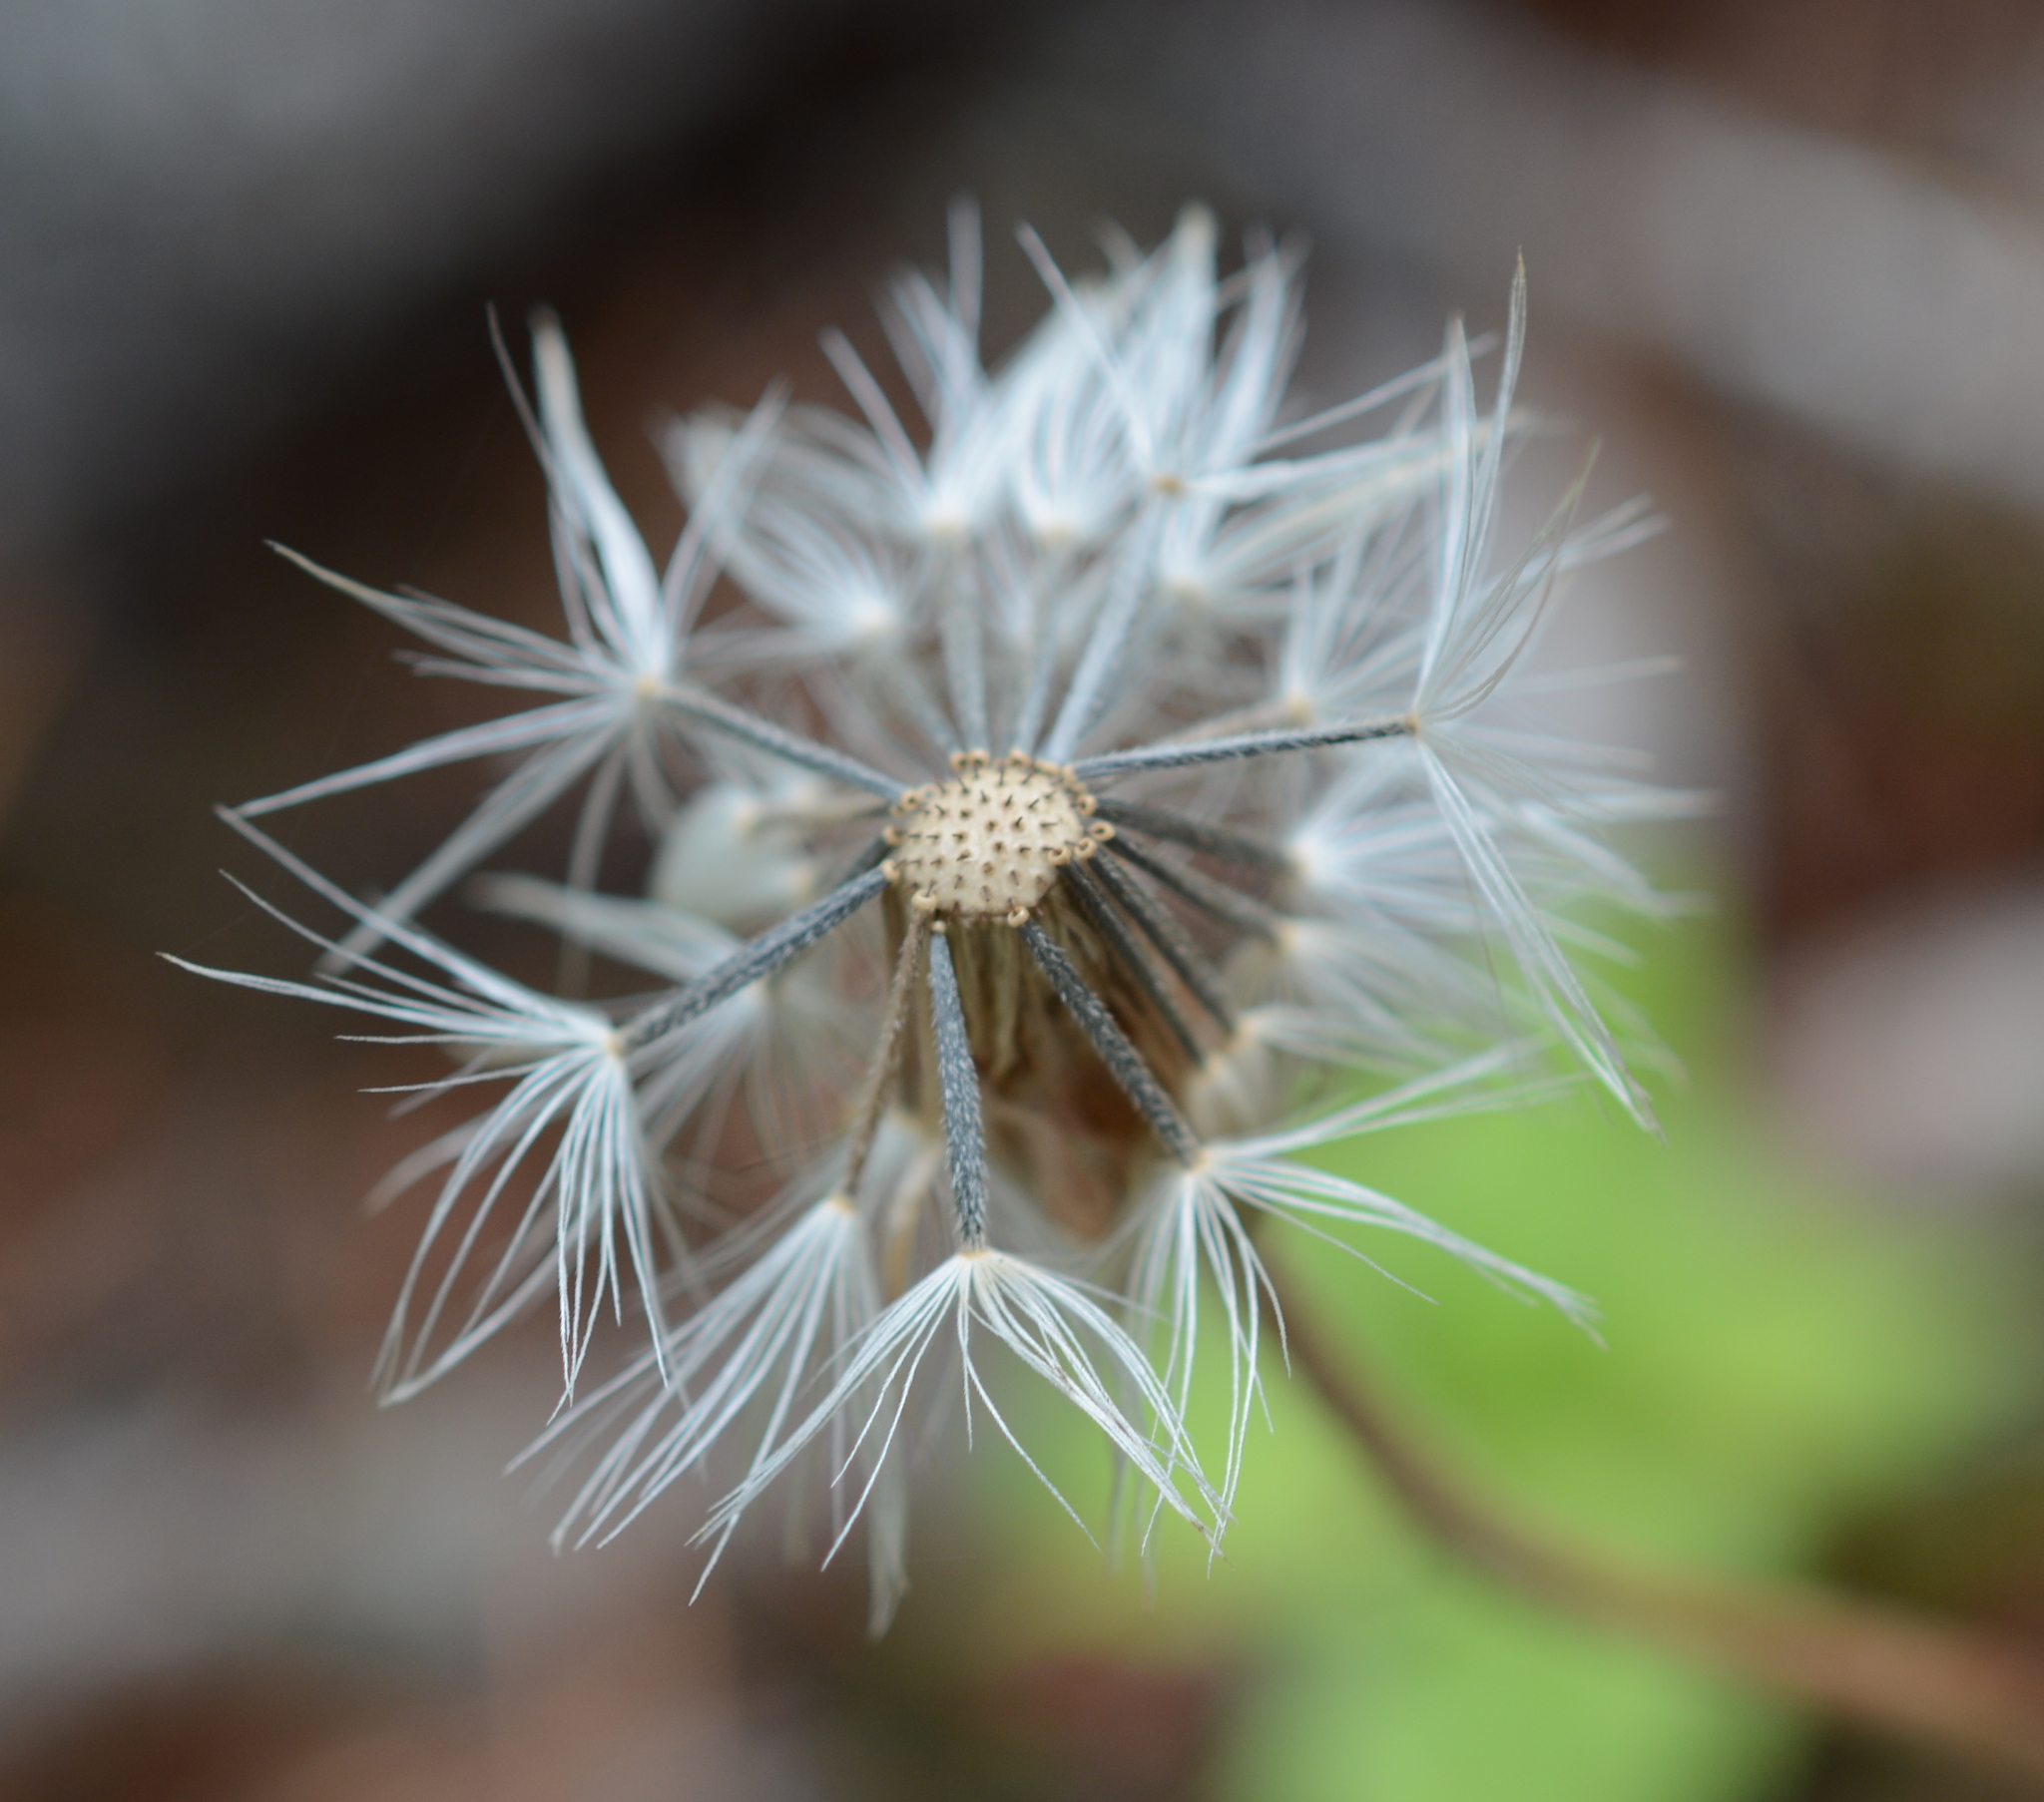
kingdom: Plantae
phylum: Tracheophyta
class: Magnoliopsida
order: Asterales
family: Asteraceae
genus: Arnica
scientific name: Arnica cordifolia
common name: Heart-leaf arnica
